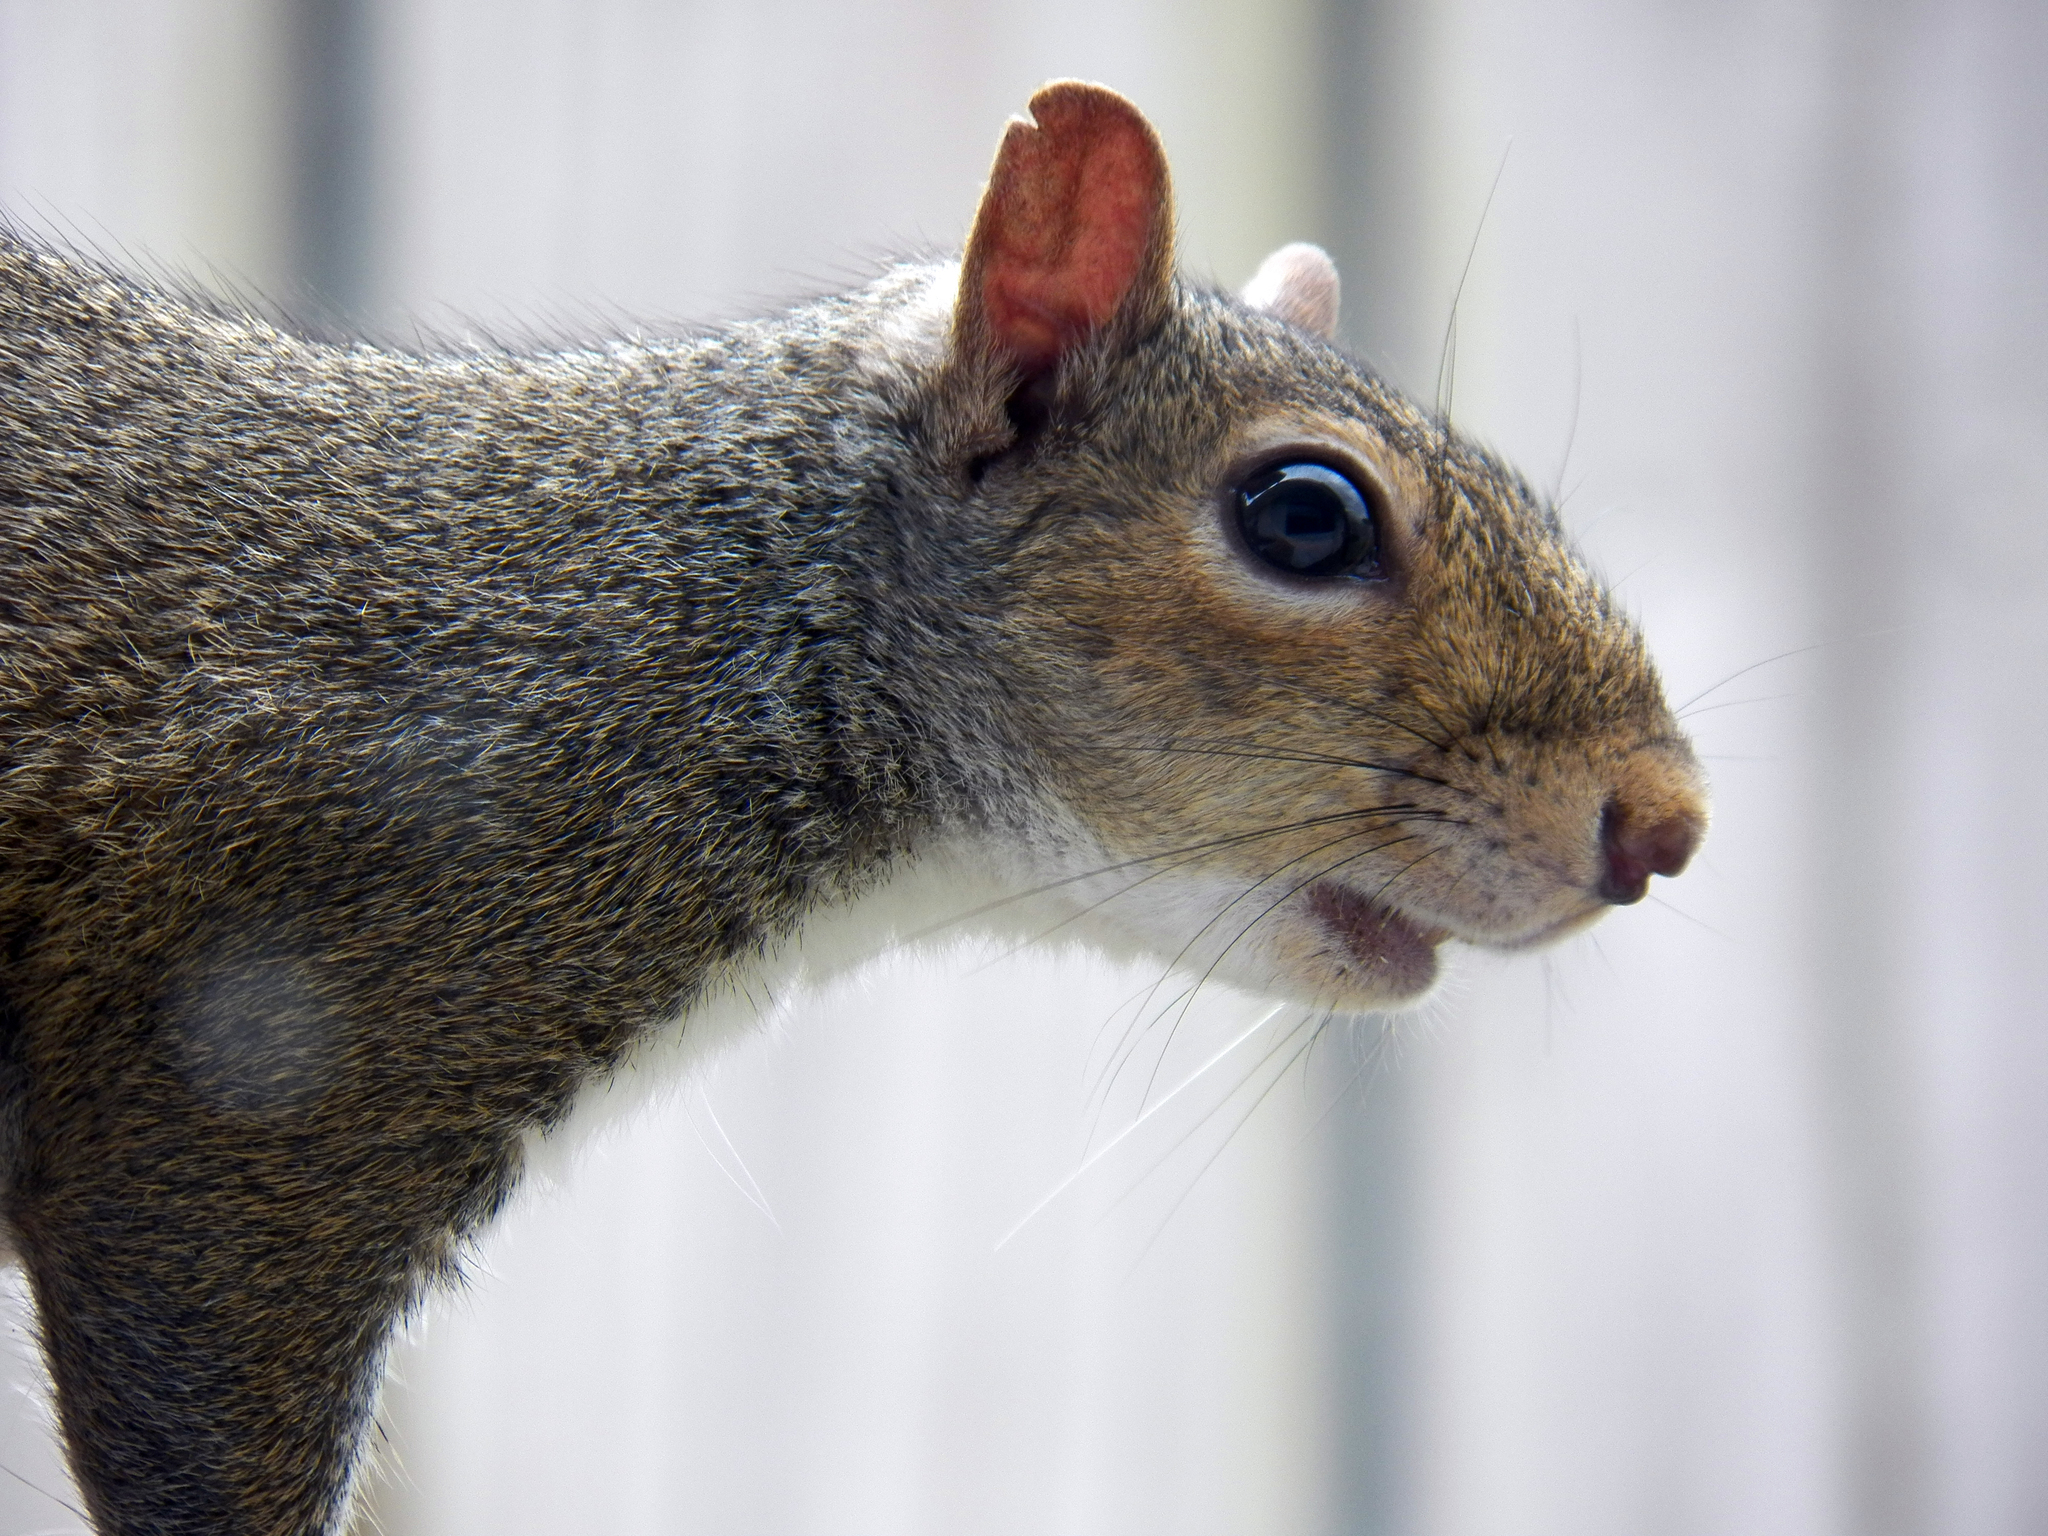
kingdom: Animalia
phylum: Chordata
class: Mammalia
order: Rodentia
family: Sciuridae
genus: Sciurus
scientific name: Sciurus carolinensis
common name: Eastern gray squirrel
